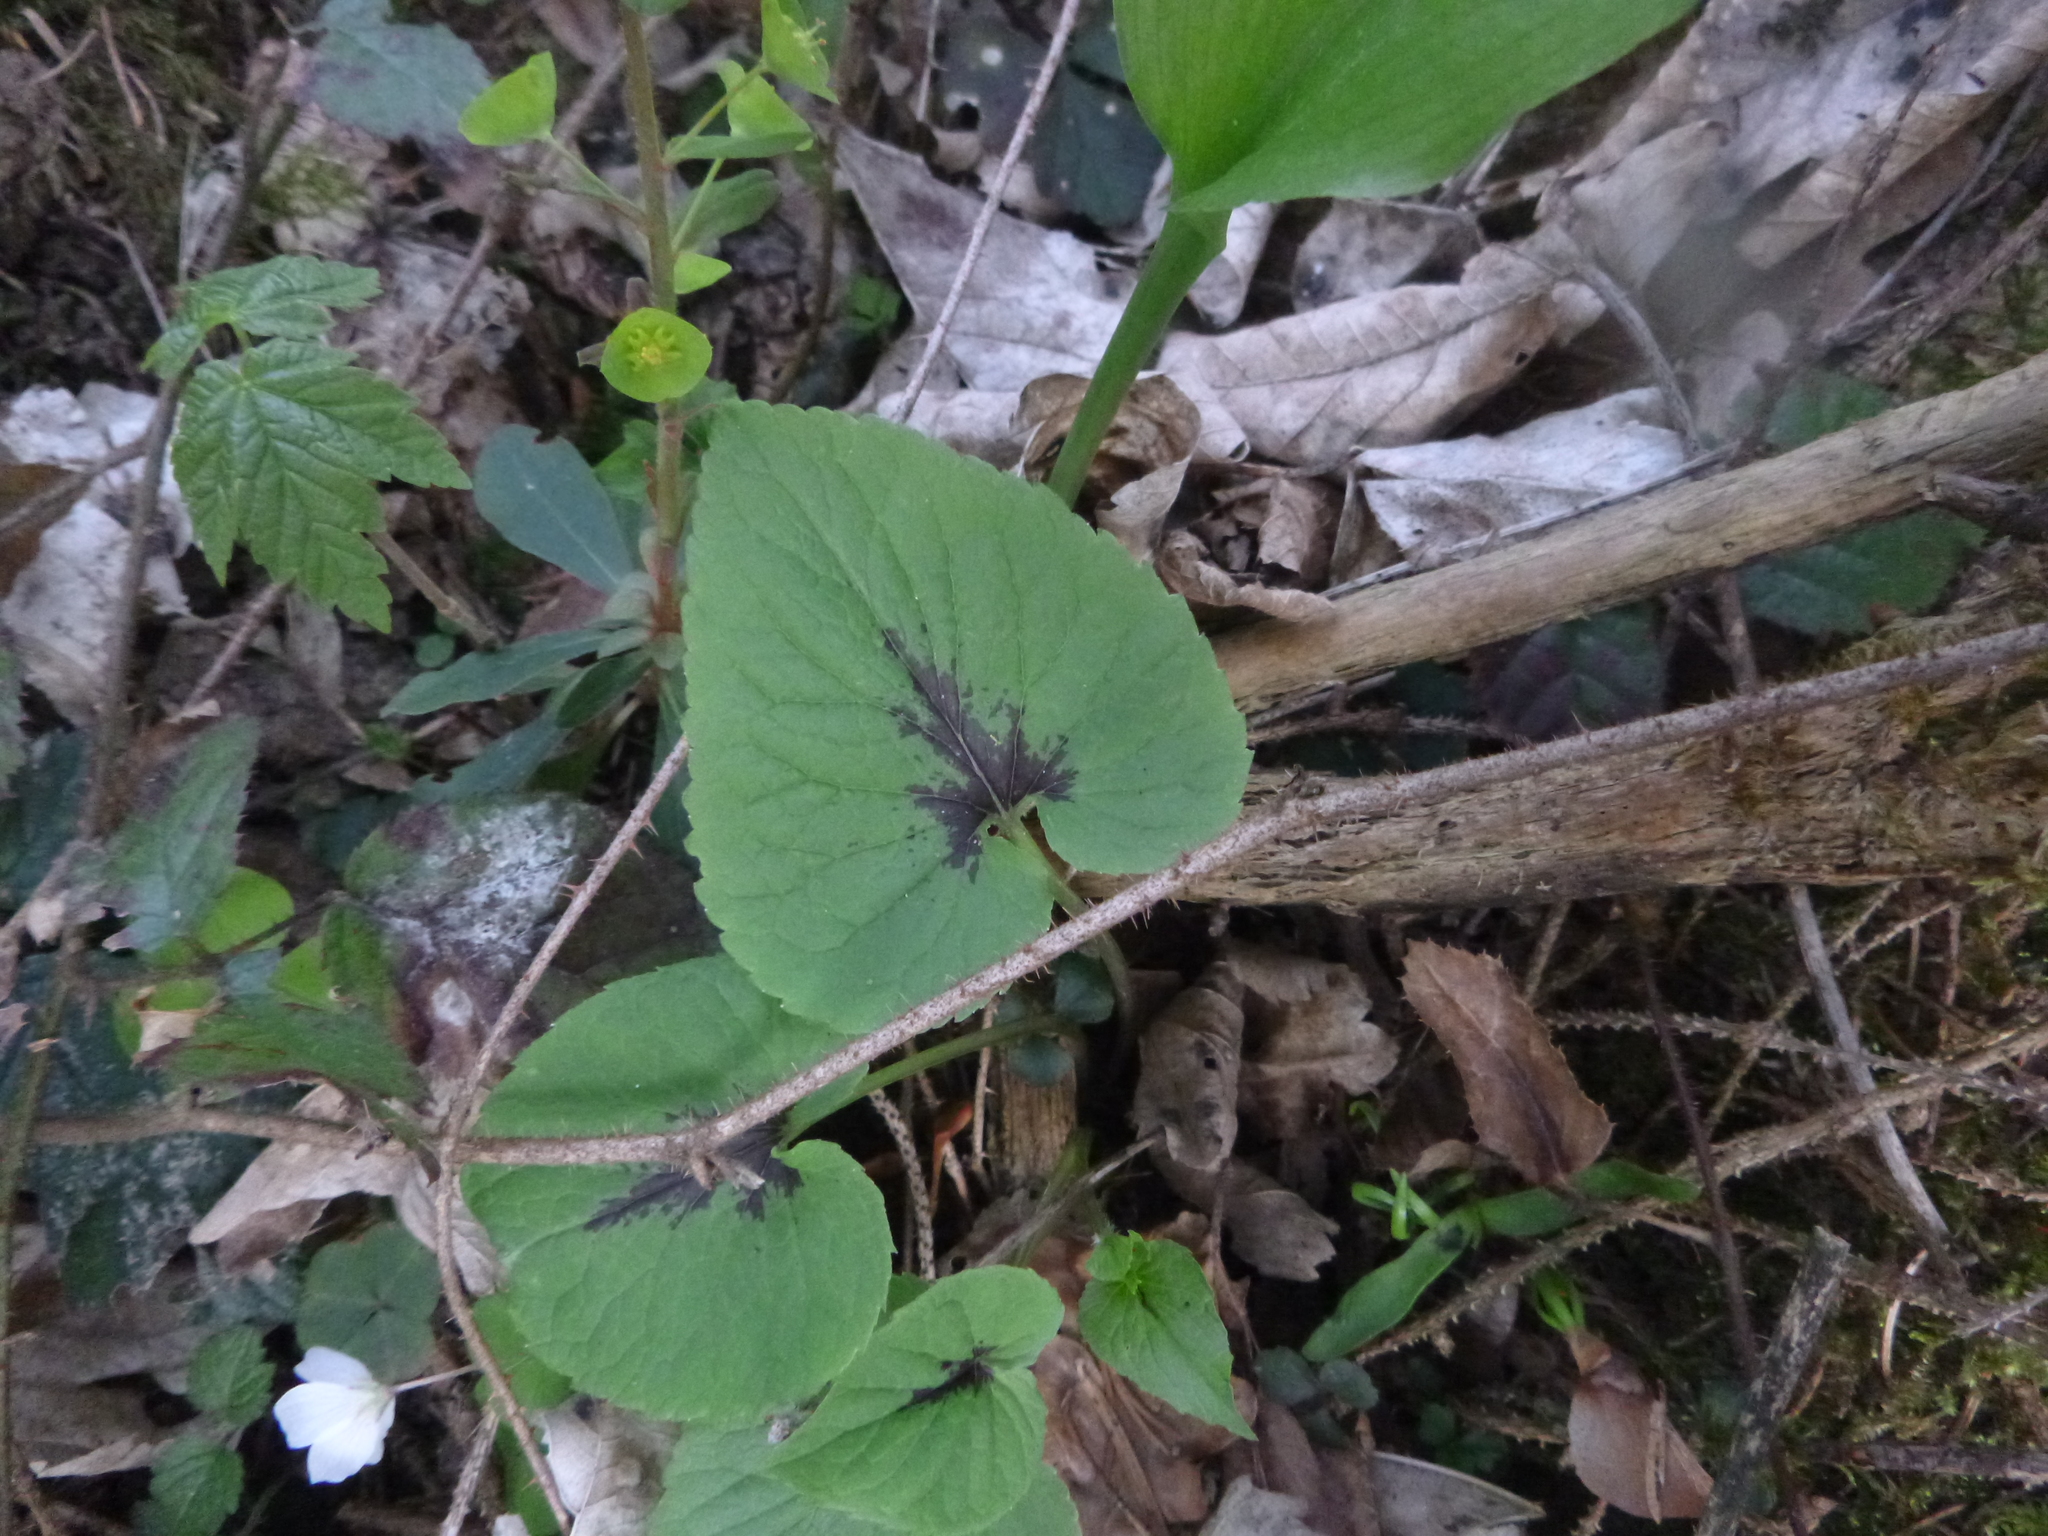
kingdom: Plantae
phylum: Tracheophyta
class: Magnoliopsida
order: Asterales
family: Campanulaceae
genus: Phyteuma
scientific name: Phyteuma spicatum
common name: Spiked rampion
